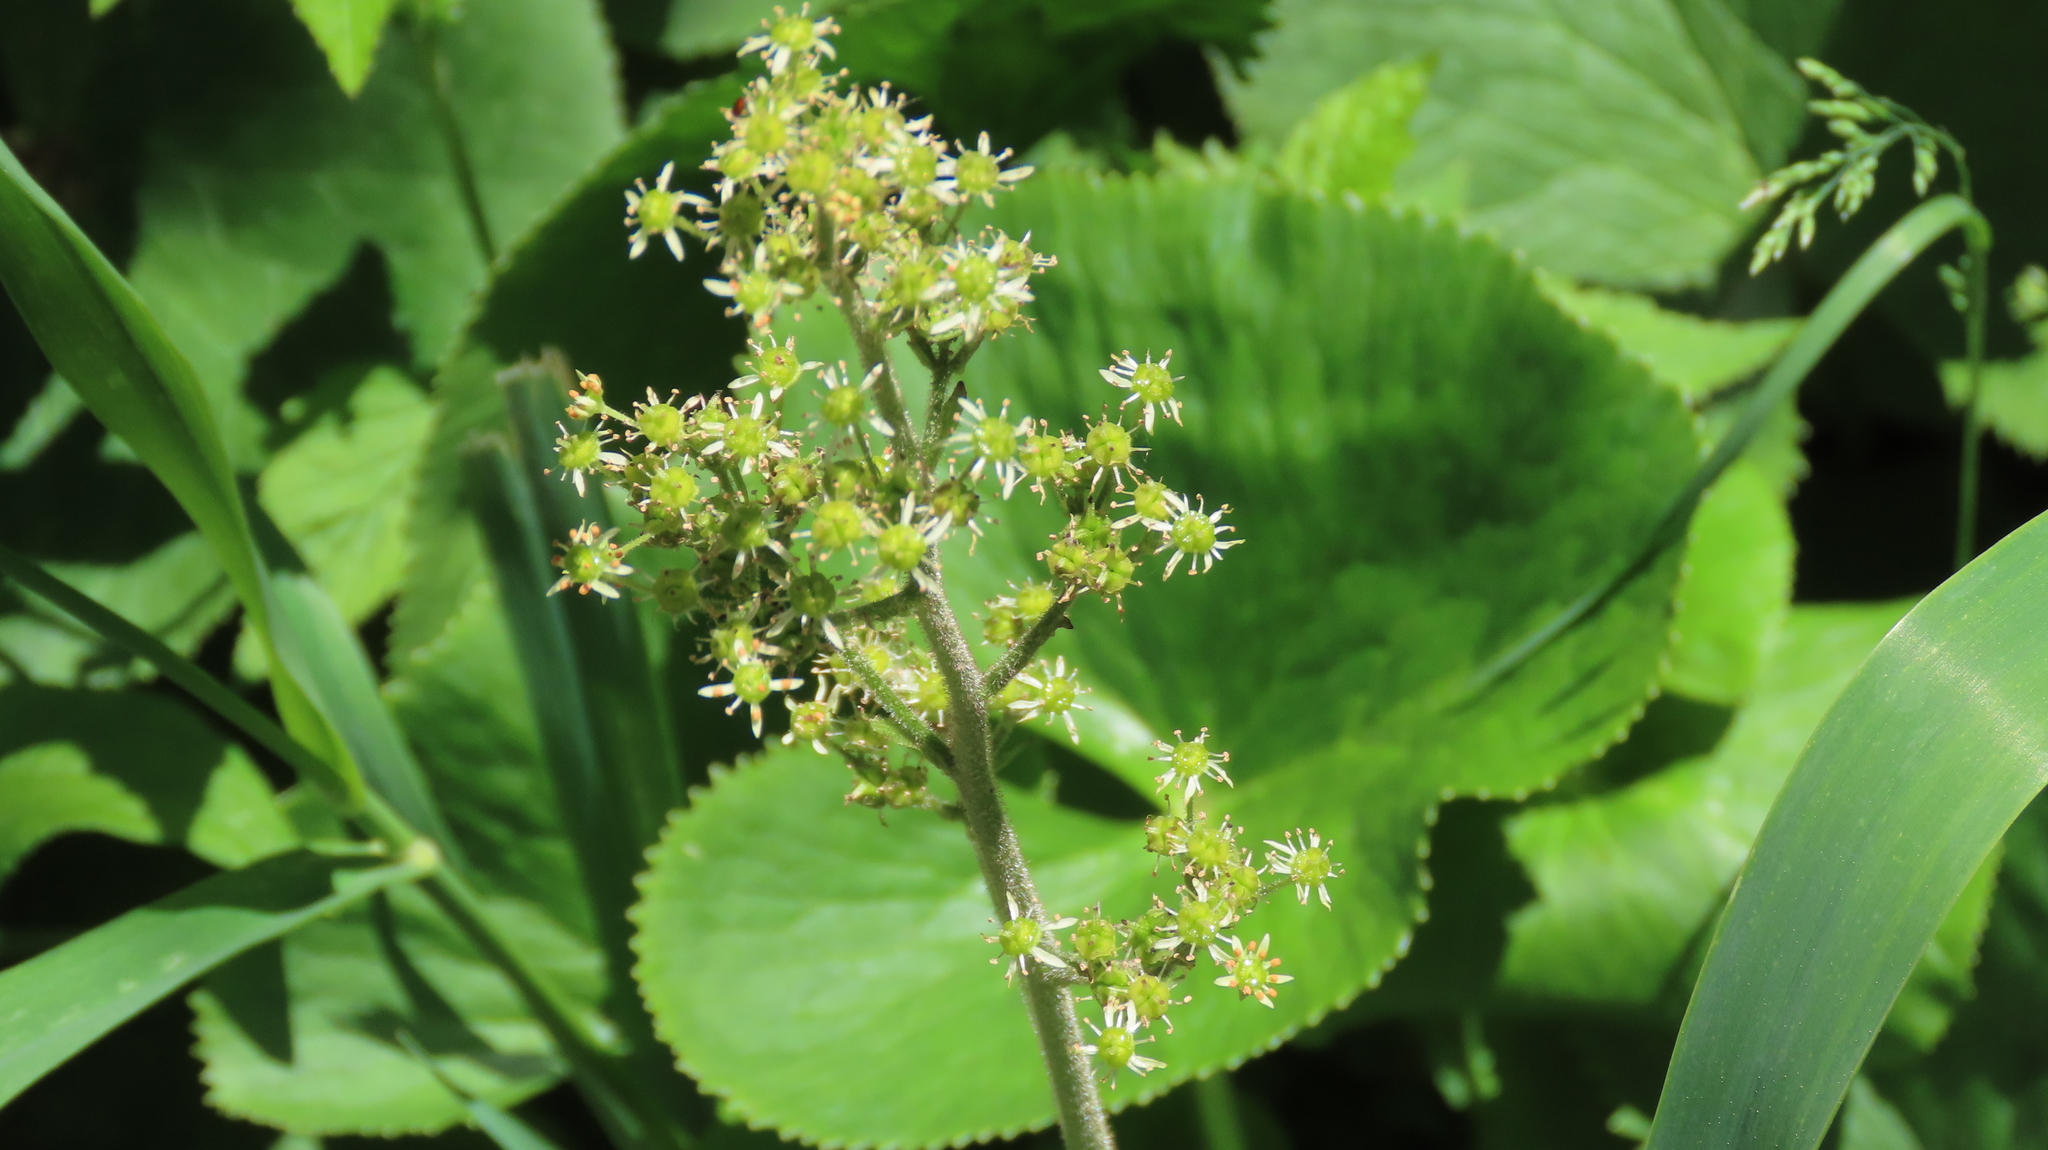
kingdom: Plantae
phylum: Tracheophyta
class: Magnoliopsida
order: Saxifragales
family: Saxifragaceae
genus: Micranthes
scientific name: Micranthes pensylvanica
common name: Marsh saxifrage
